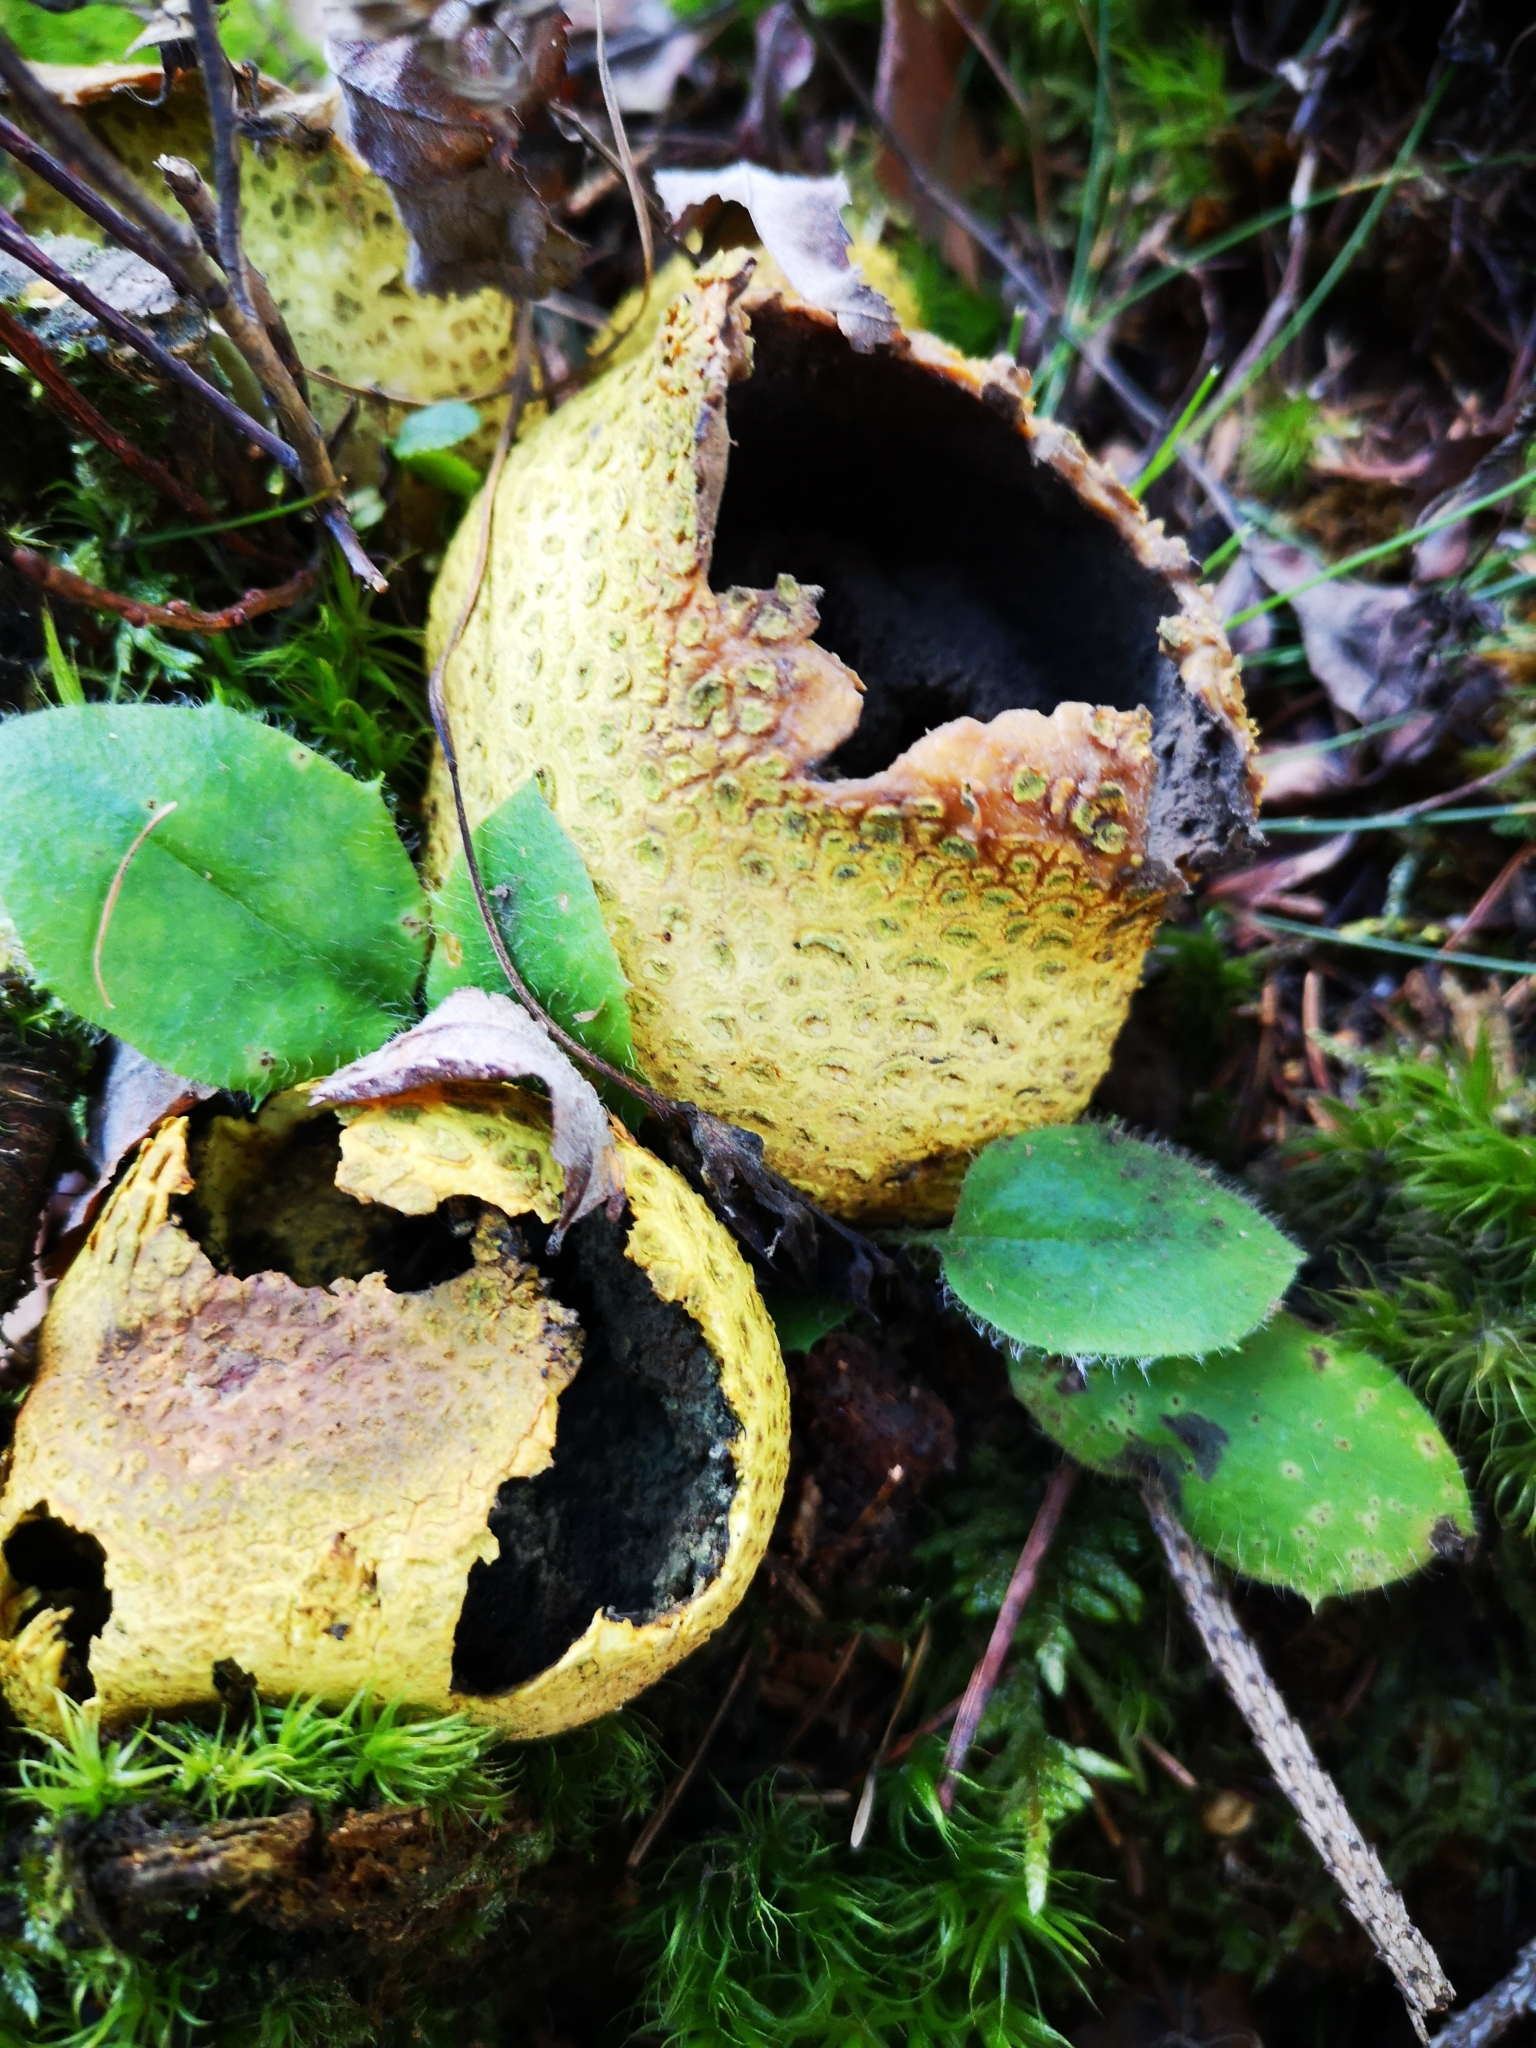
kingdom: Fungi
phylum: Basidiomycota
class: Agaricomycetes
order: Boletales
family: Sclerodermataceae
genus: Scleroderma
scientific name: Scleroderma citrinum
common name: Common earthball
